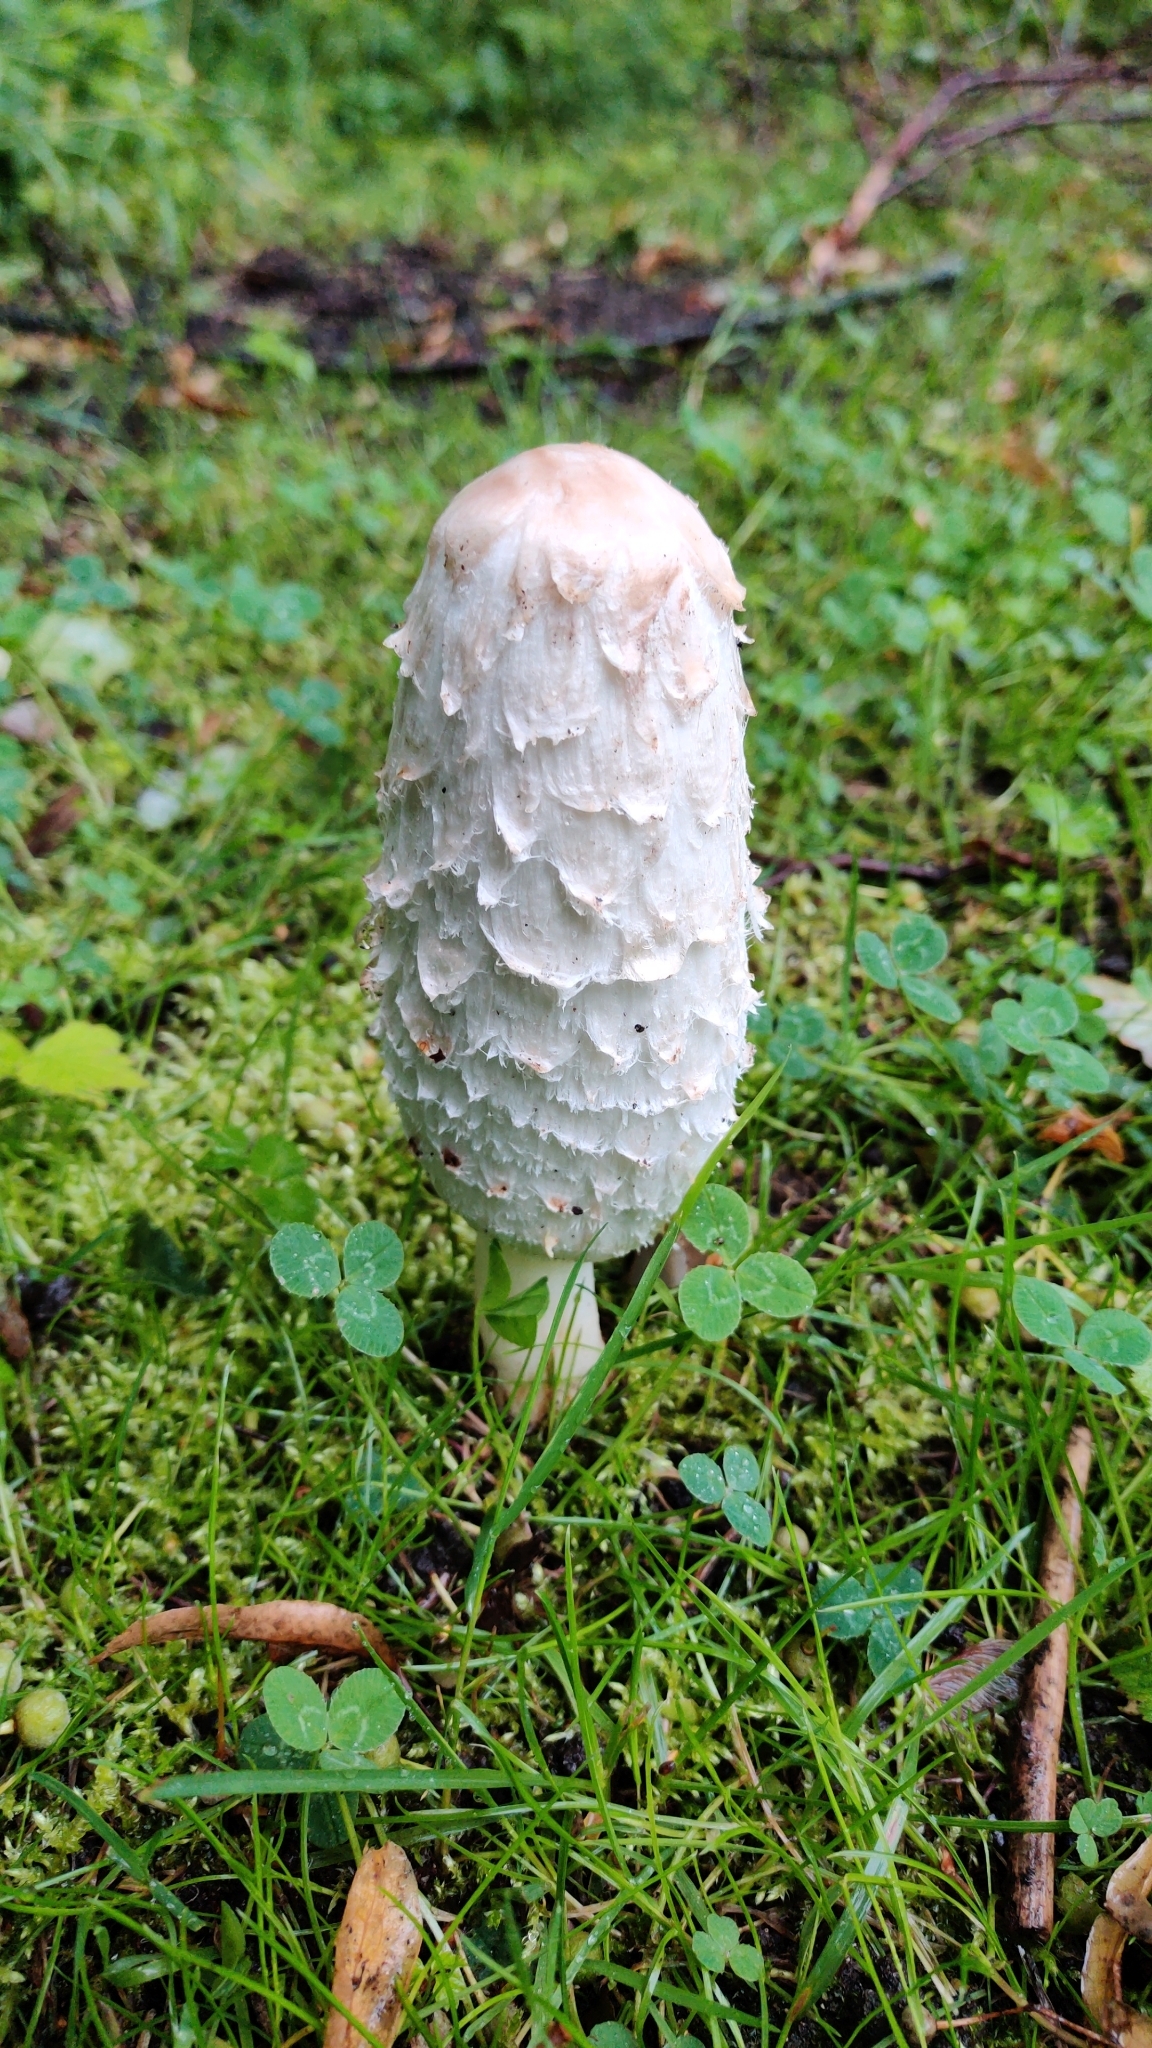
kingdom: Fungi
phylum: Basidiomycota
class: Agaricomycetes
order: Agaricales
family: Agaricaceae
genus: Coprinus
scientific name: Coprinus comatus
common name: Lawyer's wig
